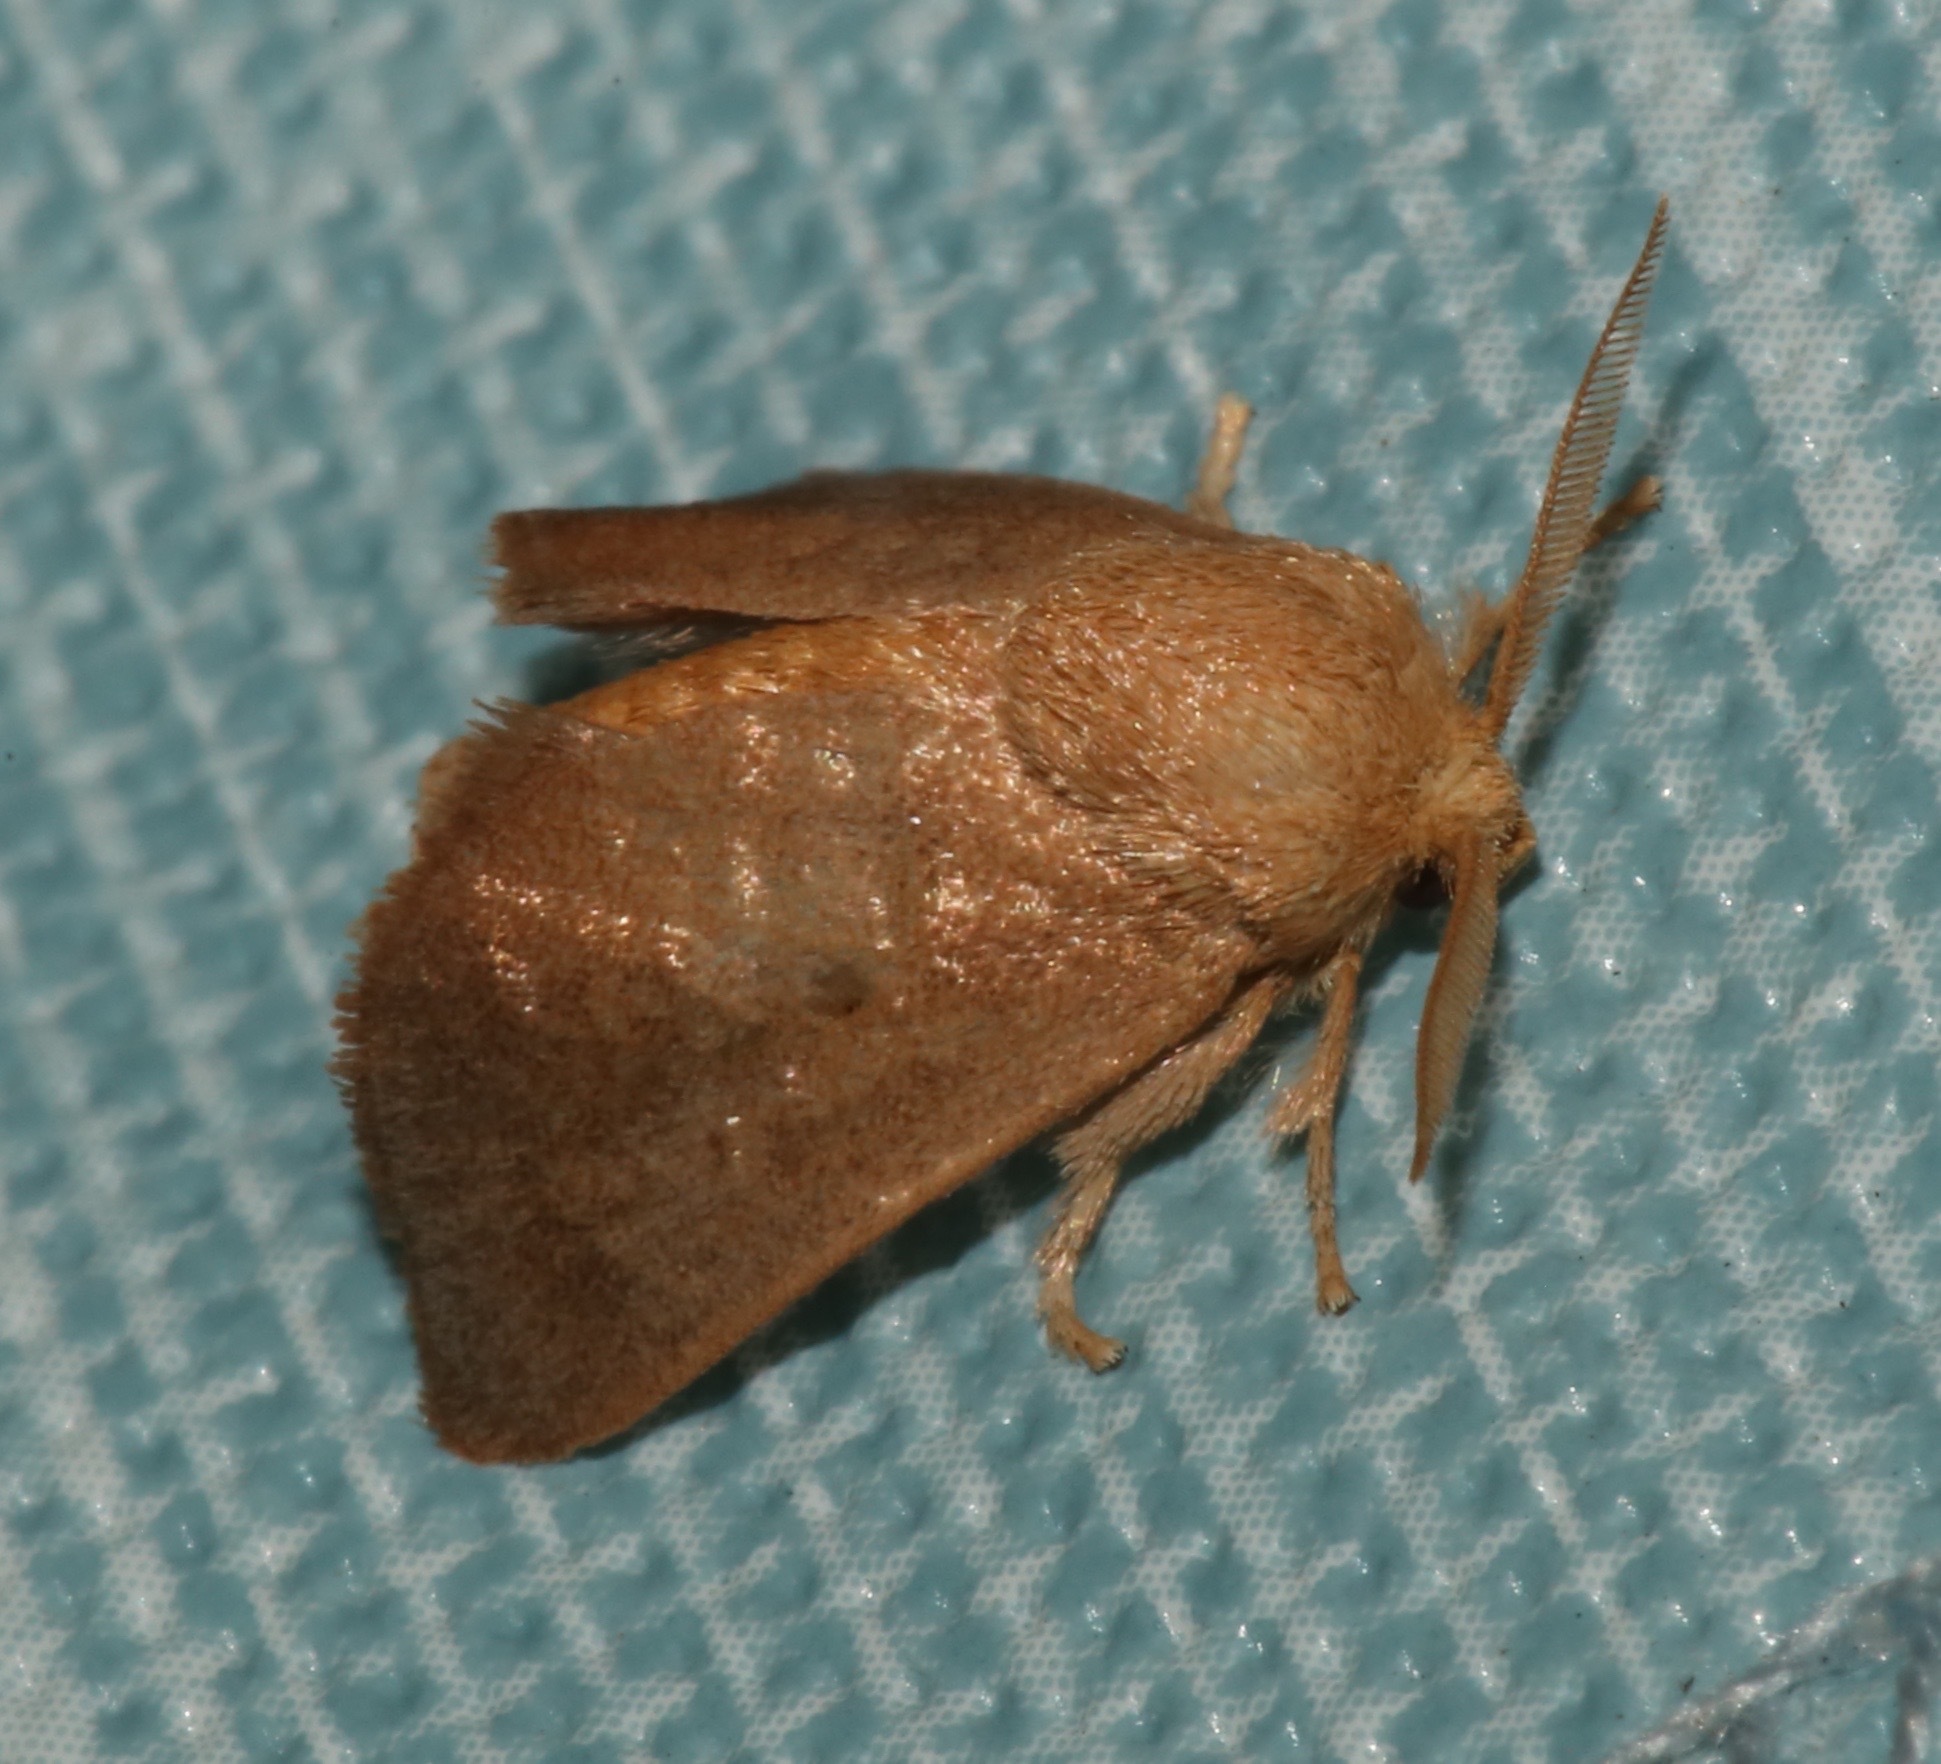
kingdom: Animalia
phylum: Arthropoda
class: Insecta
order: Lepidoptera
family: Limacodidae
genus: Isa
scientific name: Isa textula
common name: Crowned slug moth
